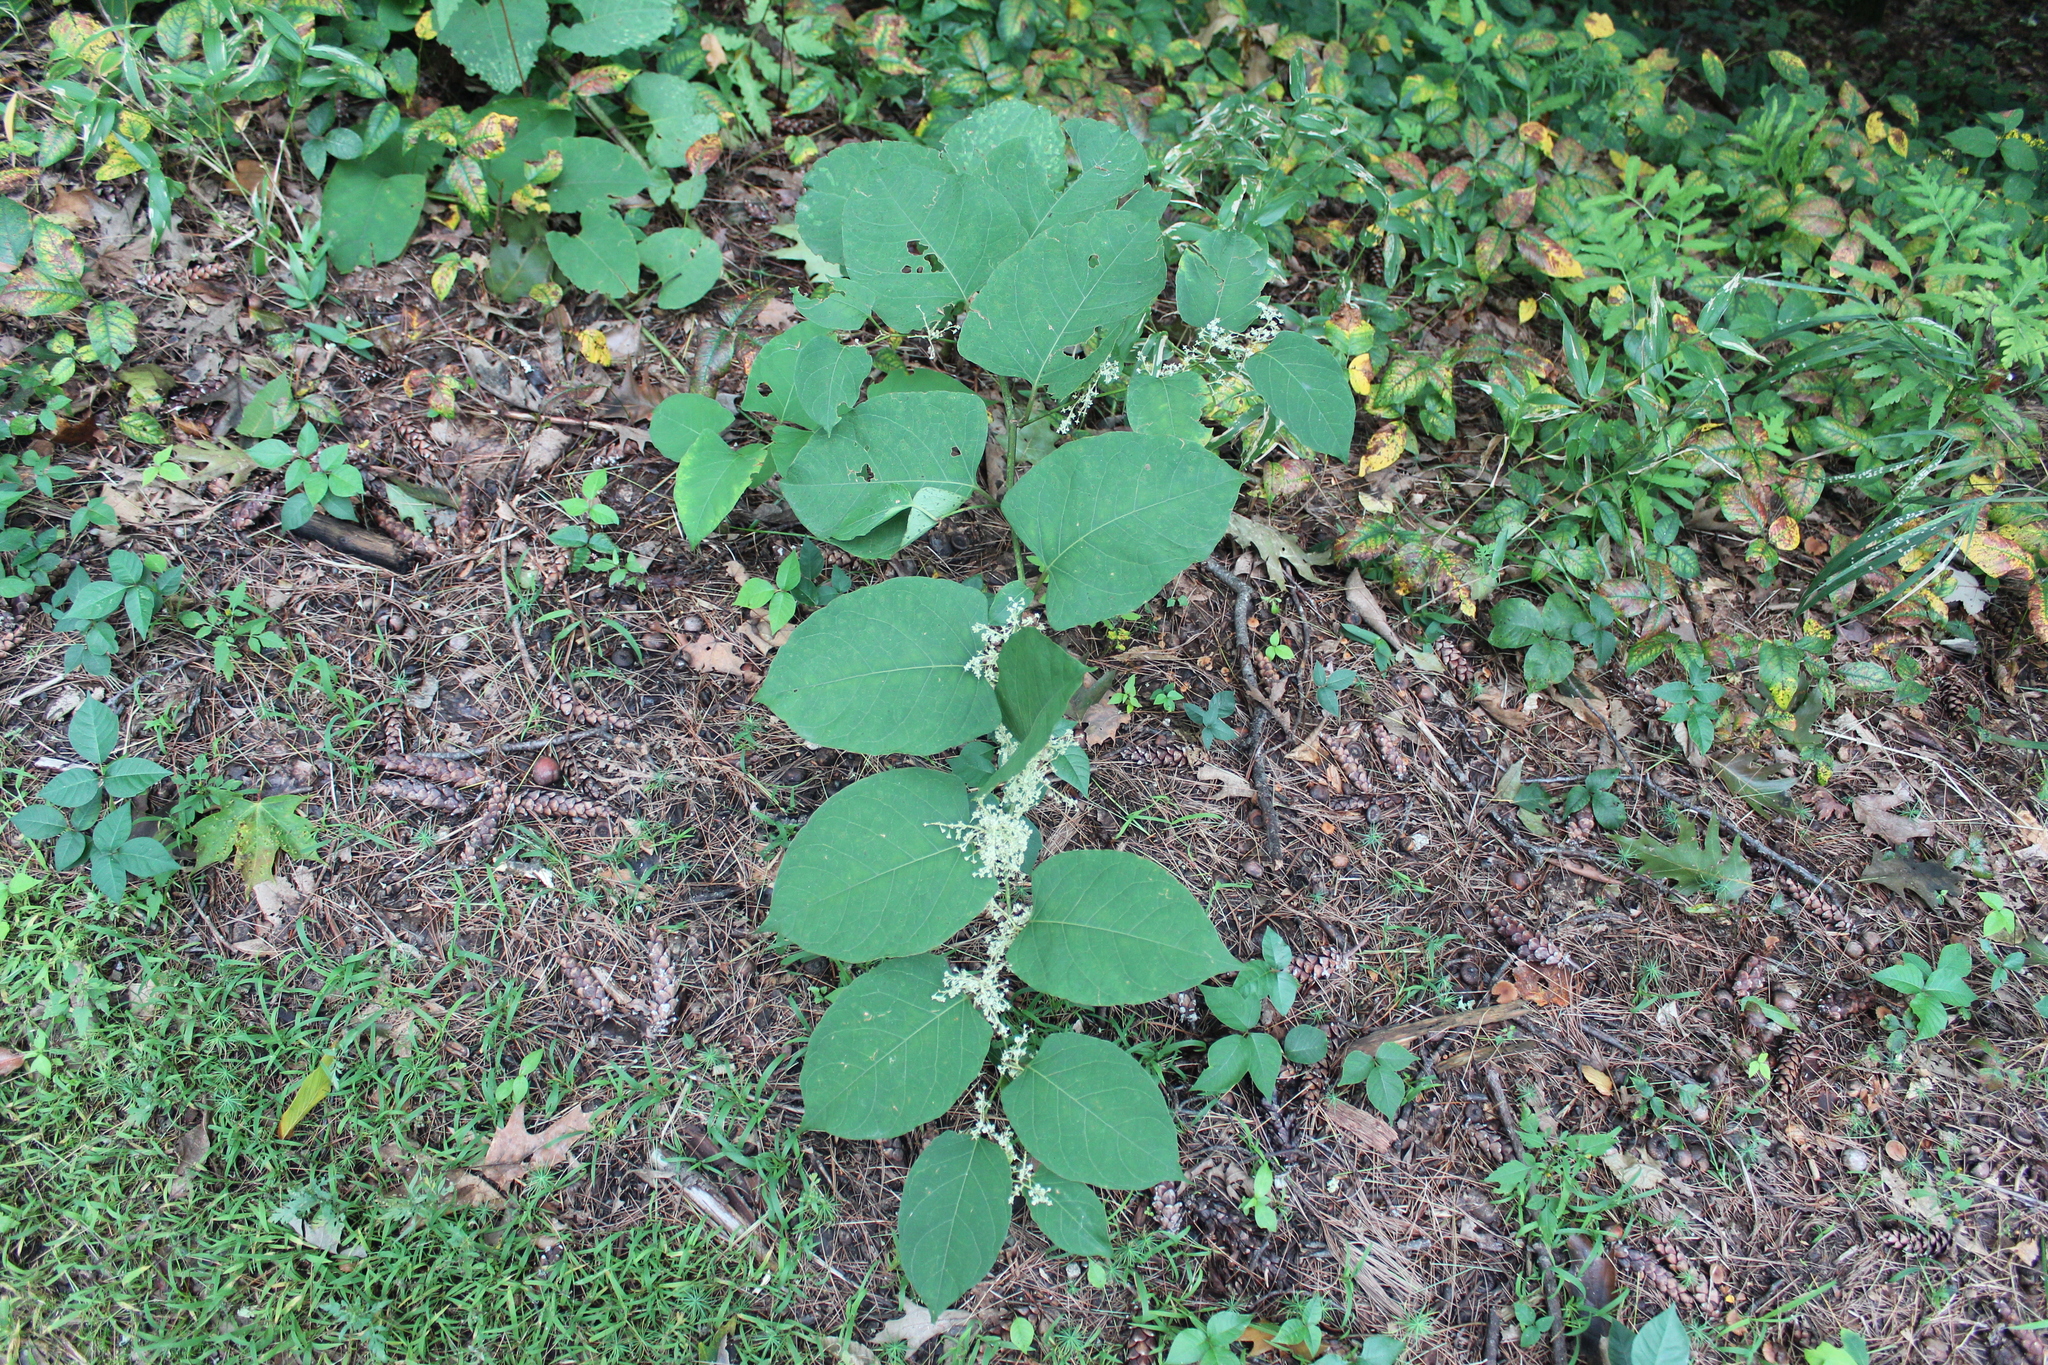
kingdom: Plantae
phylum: Tracheophyta
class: Magnoliopsida
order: Caryophyllales
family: Polygonaceae
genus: Reynoutria
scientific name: Reynoutria japonica
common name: Japanese knotweed
